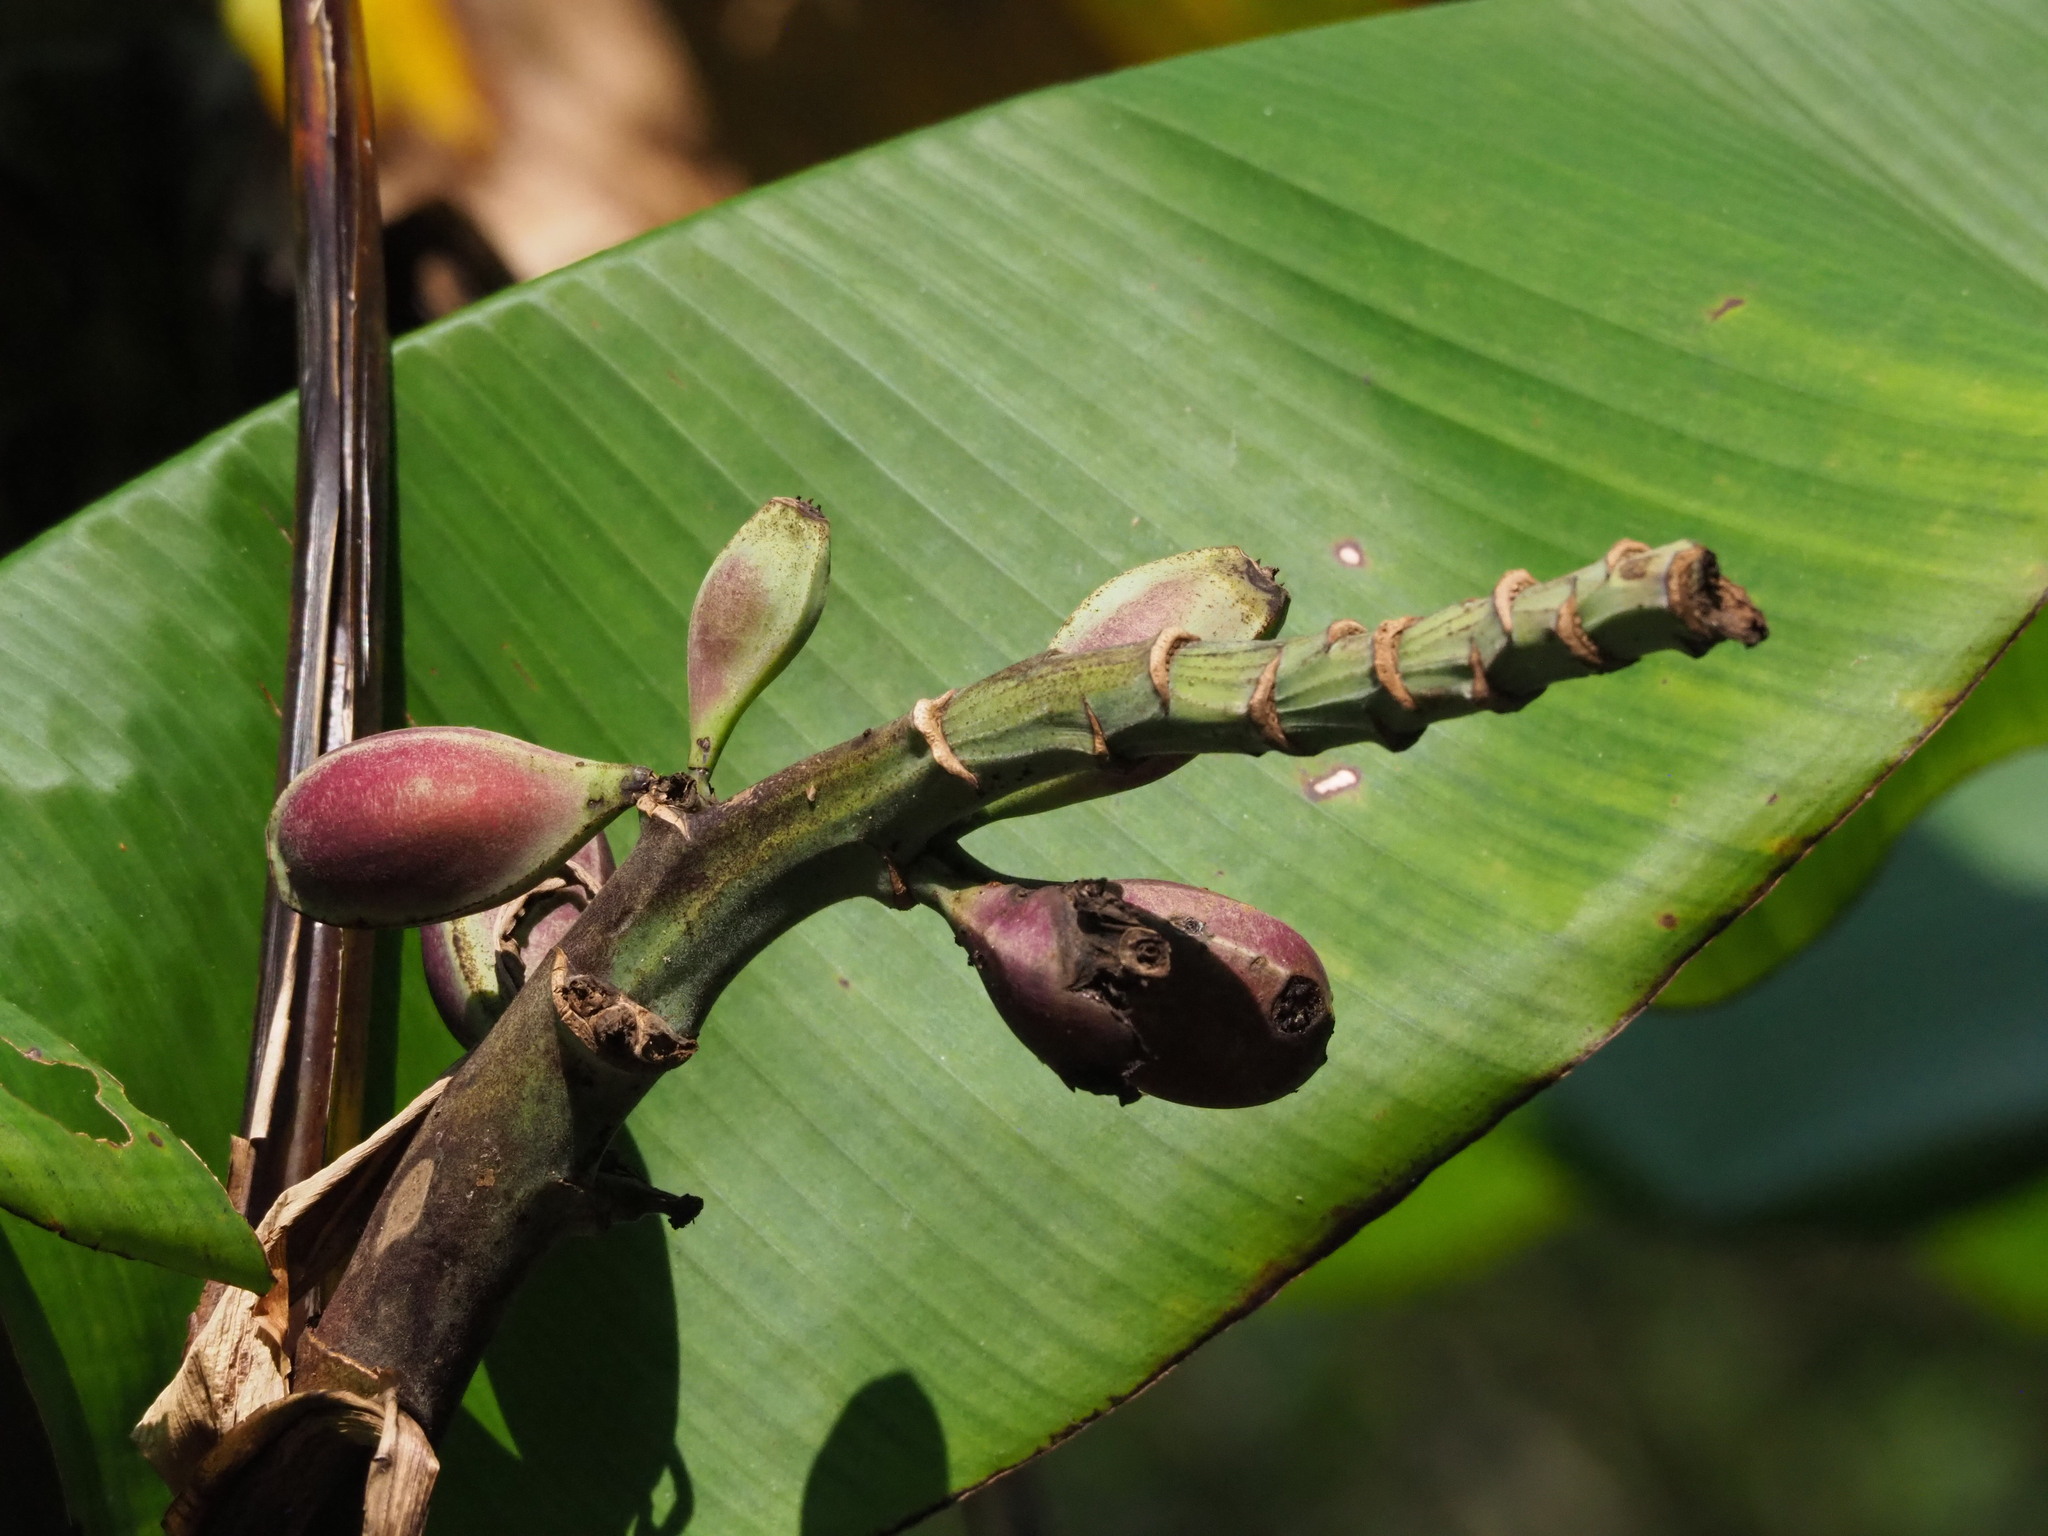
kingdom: Plantae
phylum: Tracheophyta
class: Liliopsida
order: Zingiberales
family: Musaceae
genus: Musa
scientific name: Musa itinerans
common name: Yunnan banana
